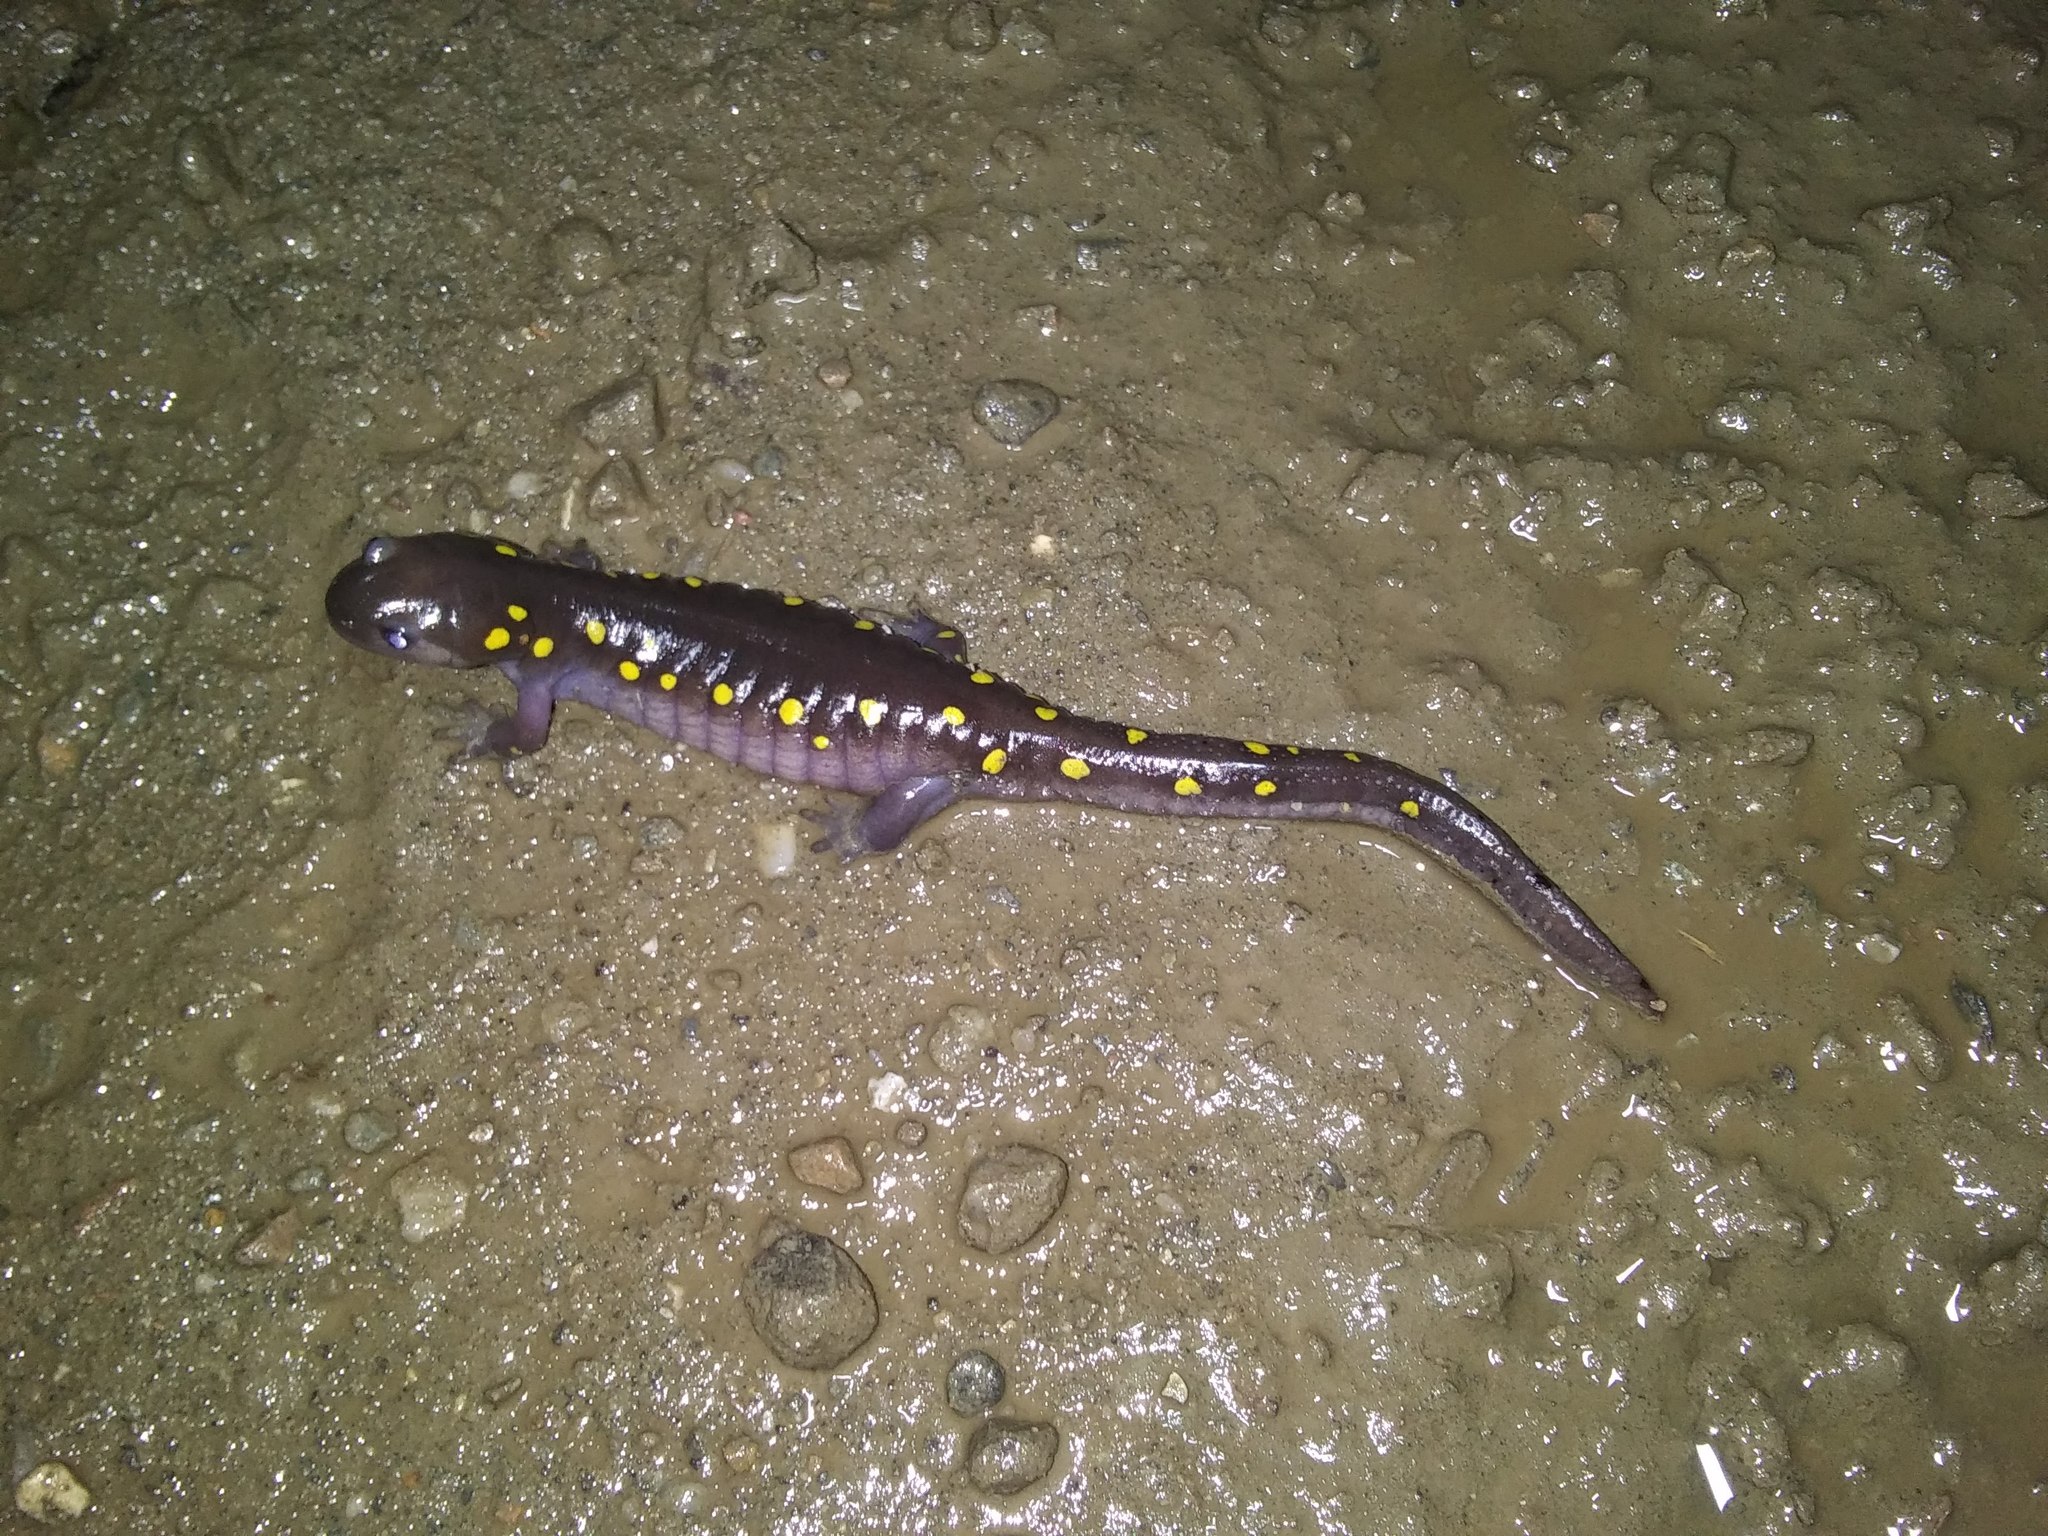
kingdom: Animalia
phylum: Chordata
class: Amphibia
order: Caudata
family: Ambystomatidae
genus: Ambystoma
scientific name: Ambystoma maculatum
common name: Spotted salamander
